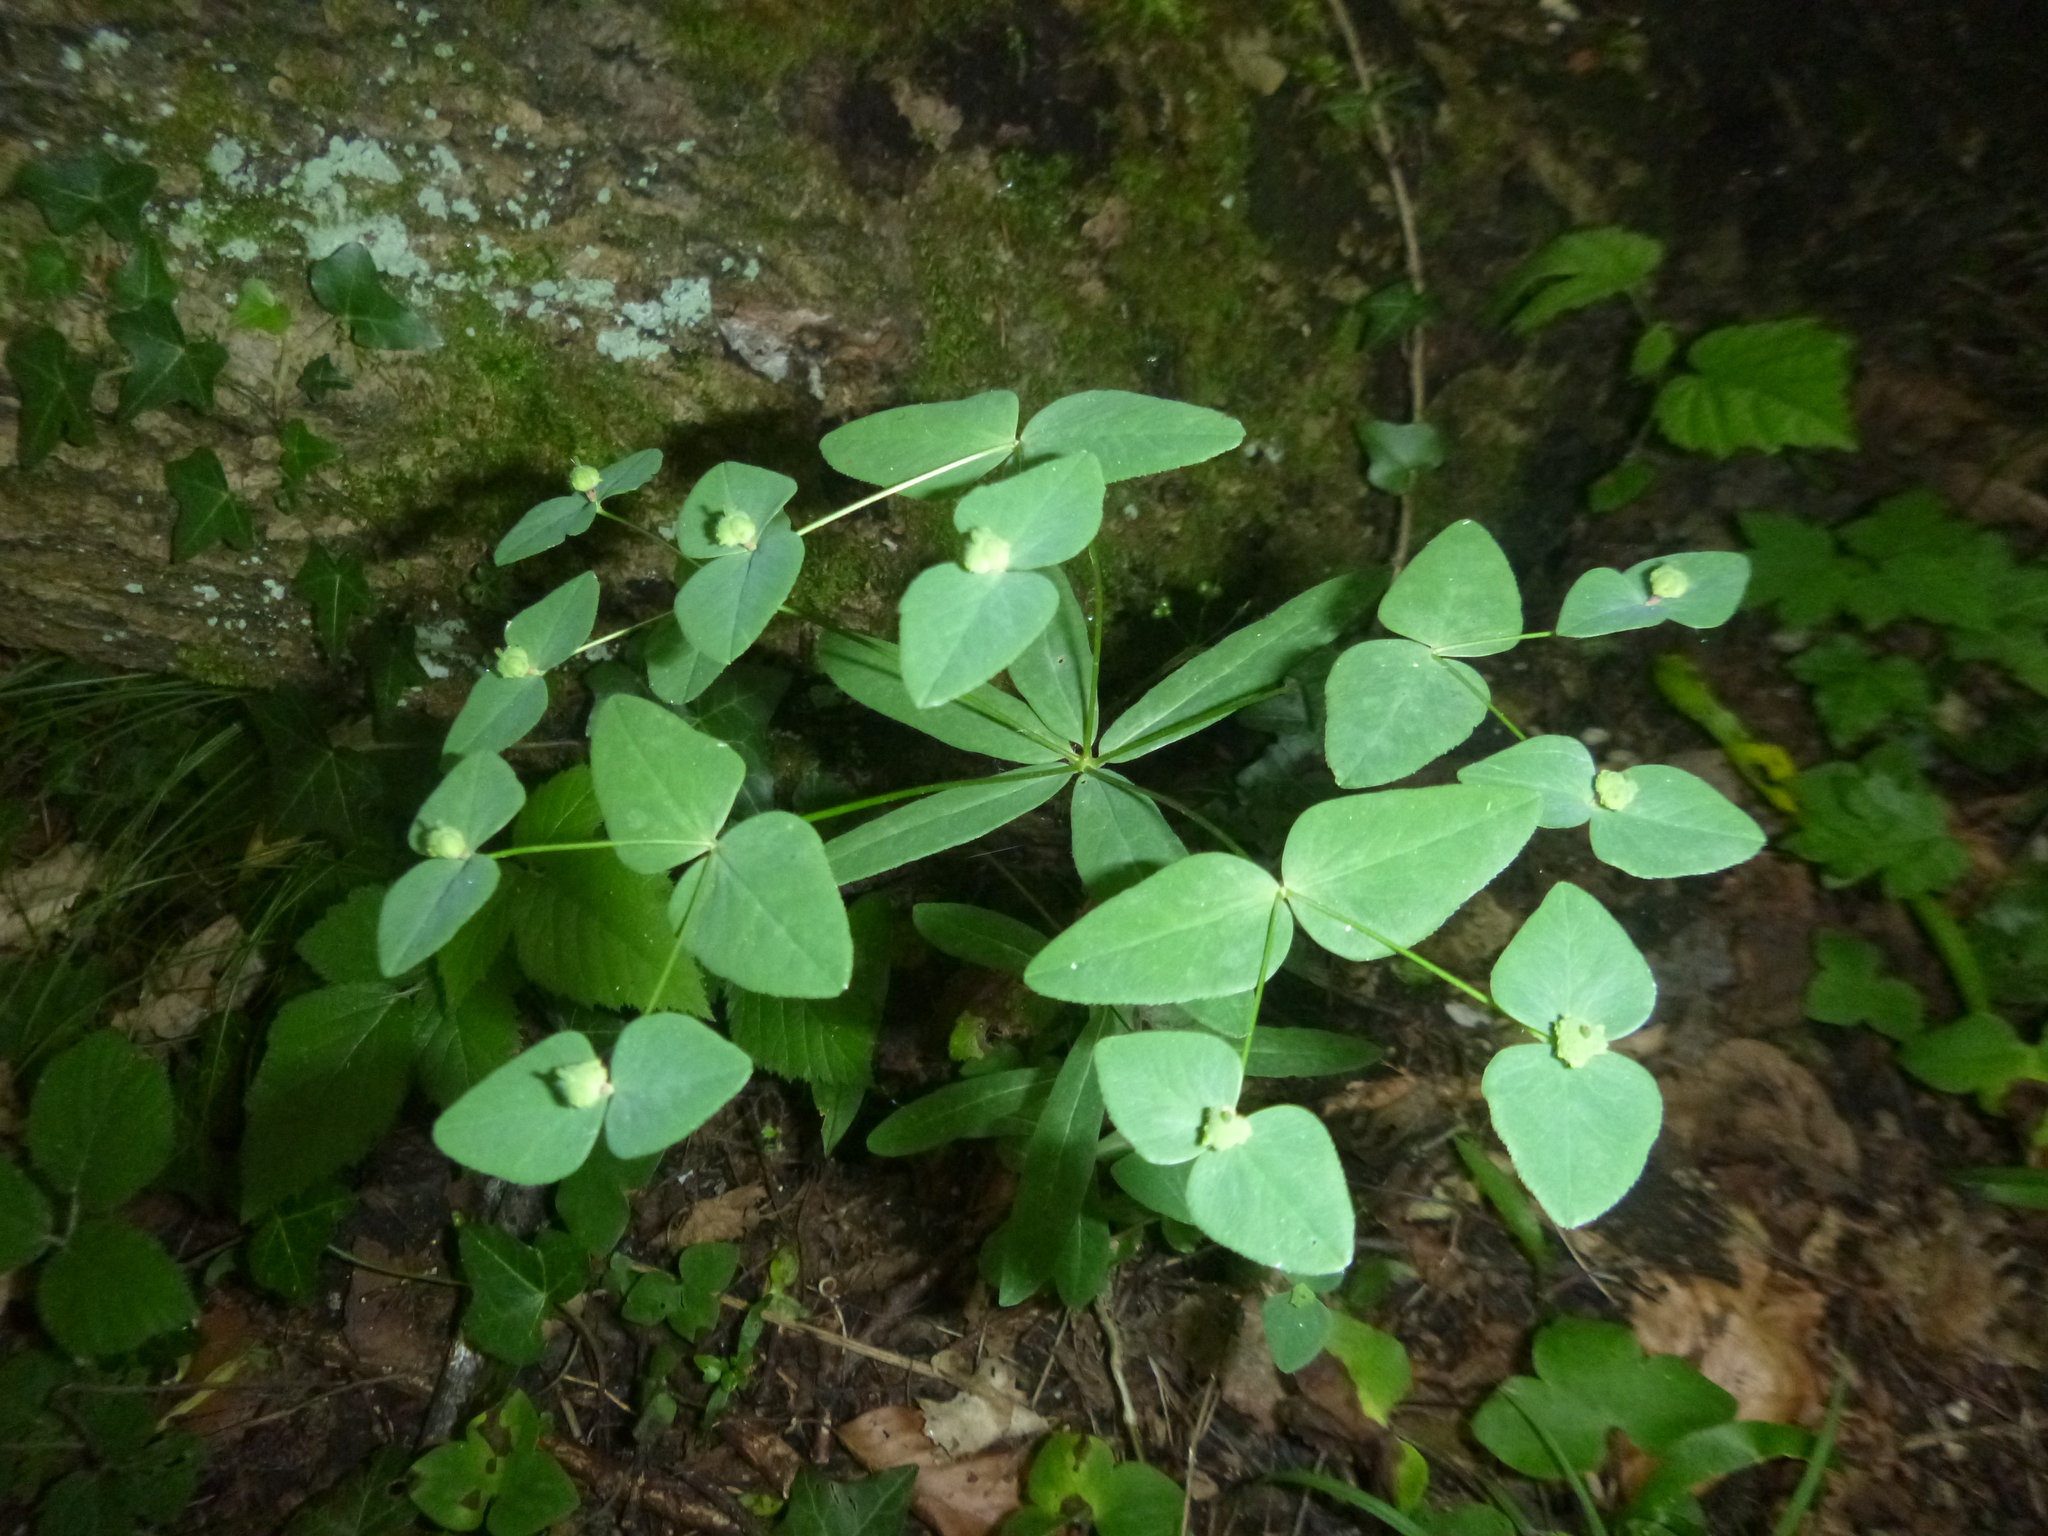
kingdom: Plantae
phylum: Tracheophyta
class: Magnoliopsida
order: Malpighiales
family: Euphorbiaceae
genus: Euphorbia
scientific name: Euphorbia dulcis
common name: Sweet spurge
